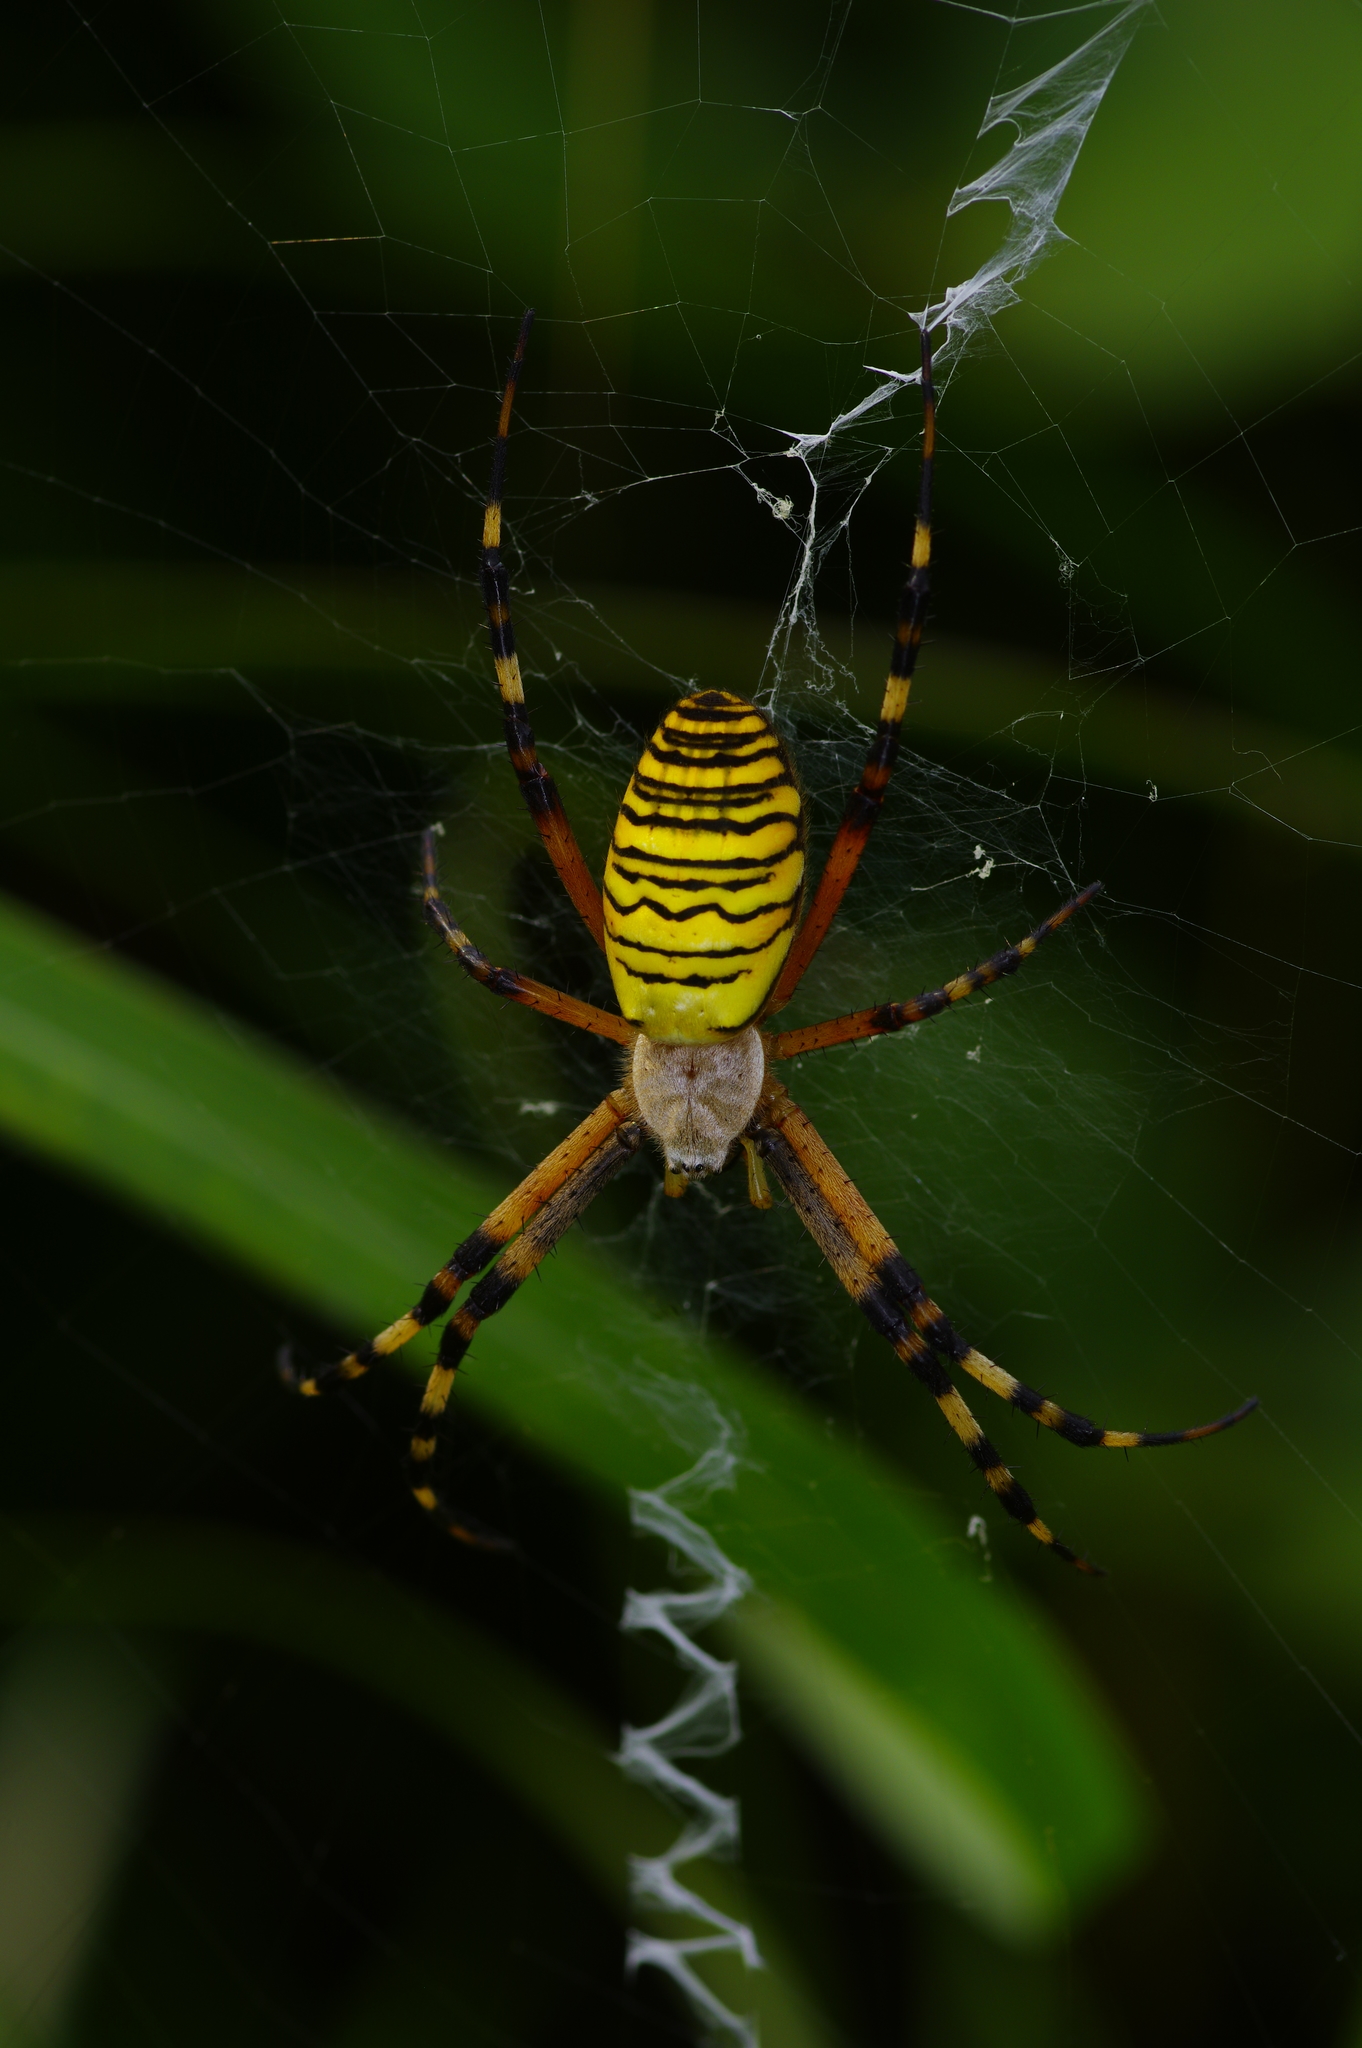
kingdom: Animalia
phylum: Arthropoda
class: Arachnida
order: Araneae
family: Araneidae
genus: Argiope
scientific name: Argiope bruennichi
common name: Wasp spider
